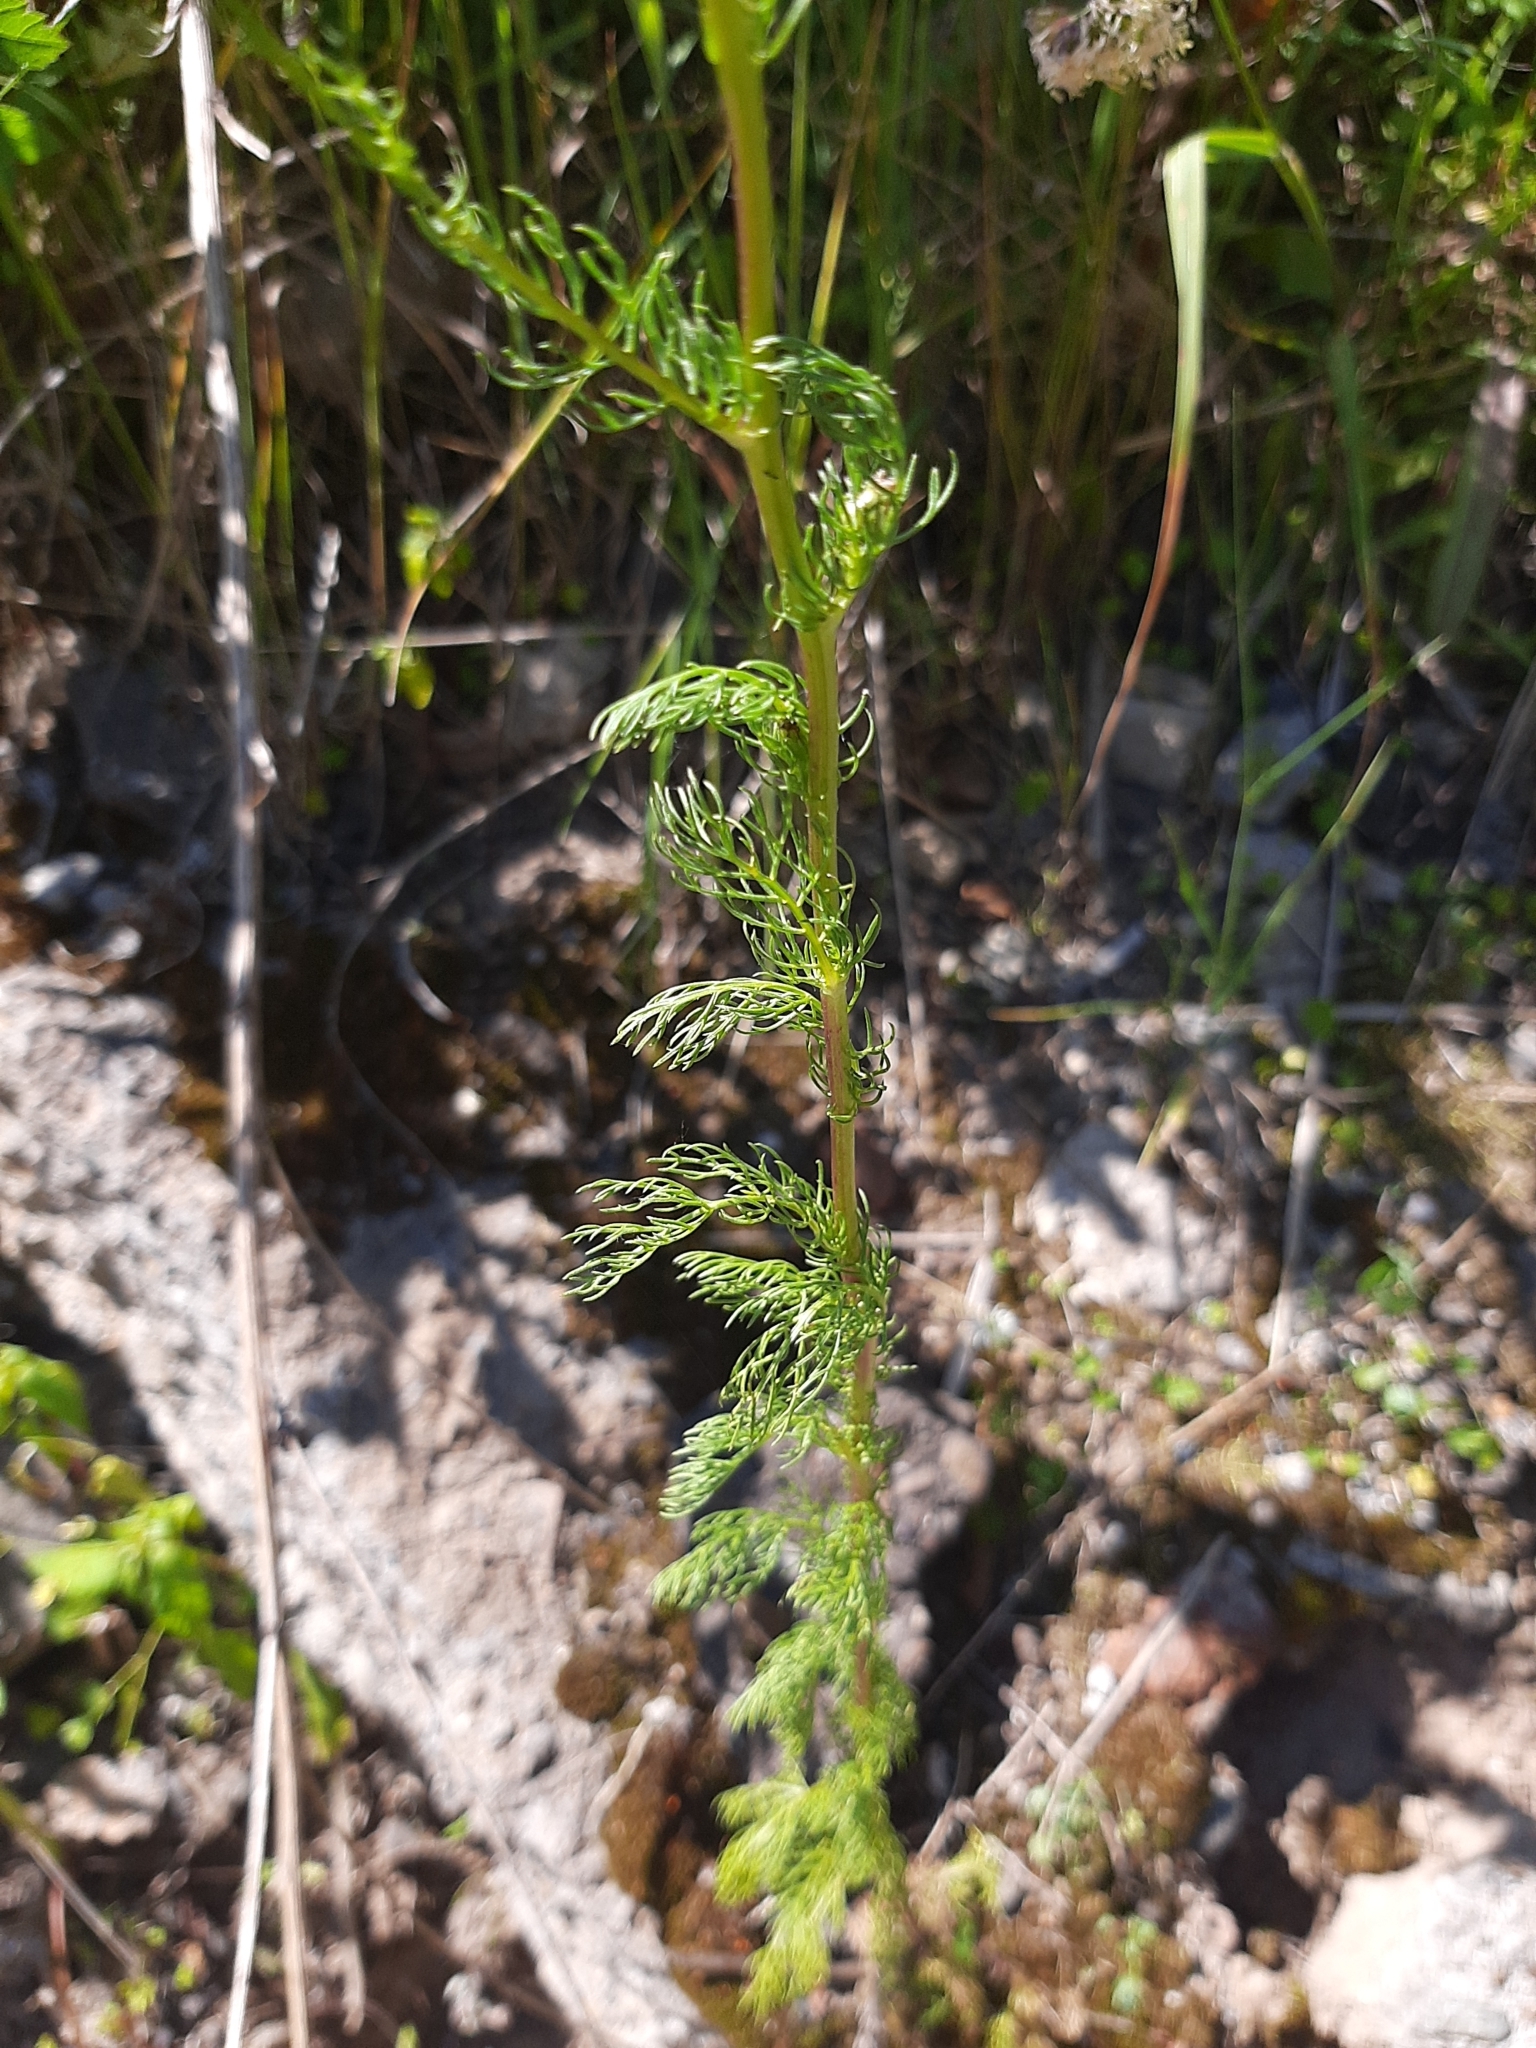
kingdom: Plantae
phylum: Tracheophyta
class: Magnoliopsida
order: Asterales
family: Asteraceae
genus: Tripleurospermum
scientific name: Tripleurospermum inodorum
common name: Scentless mayweed
